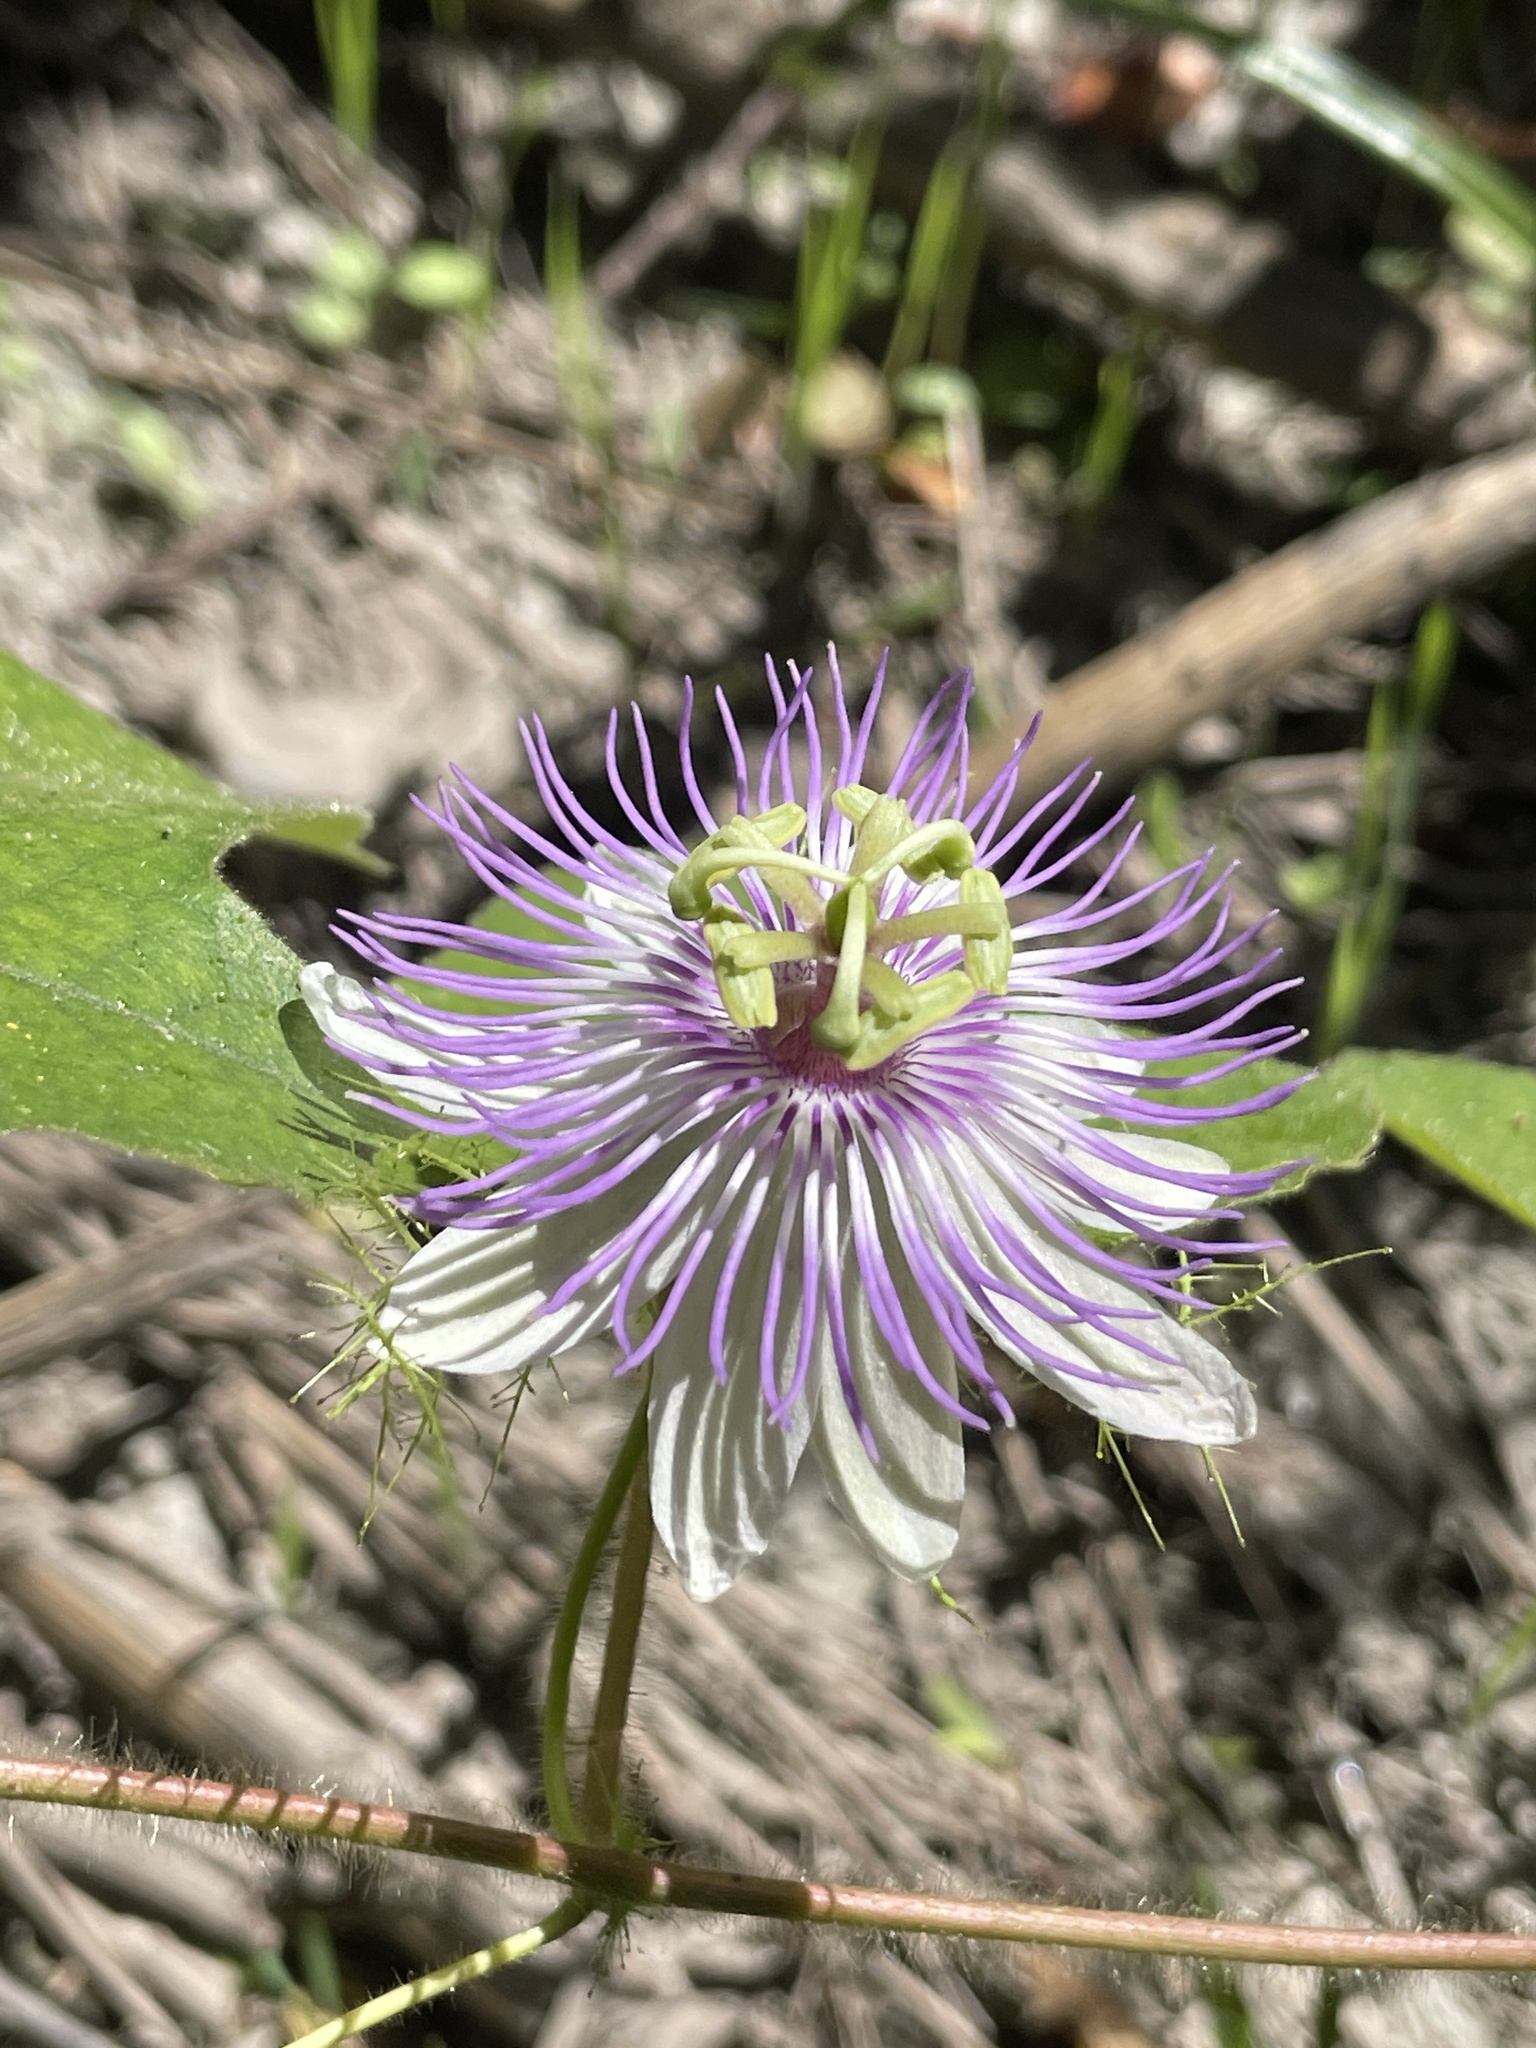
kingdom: Plantae
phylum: Tracheophyta
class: Magnoliopsida
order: Malpighiales
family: Passifloraceae
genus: Passiflora
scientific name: Passiflora
